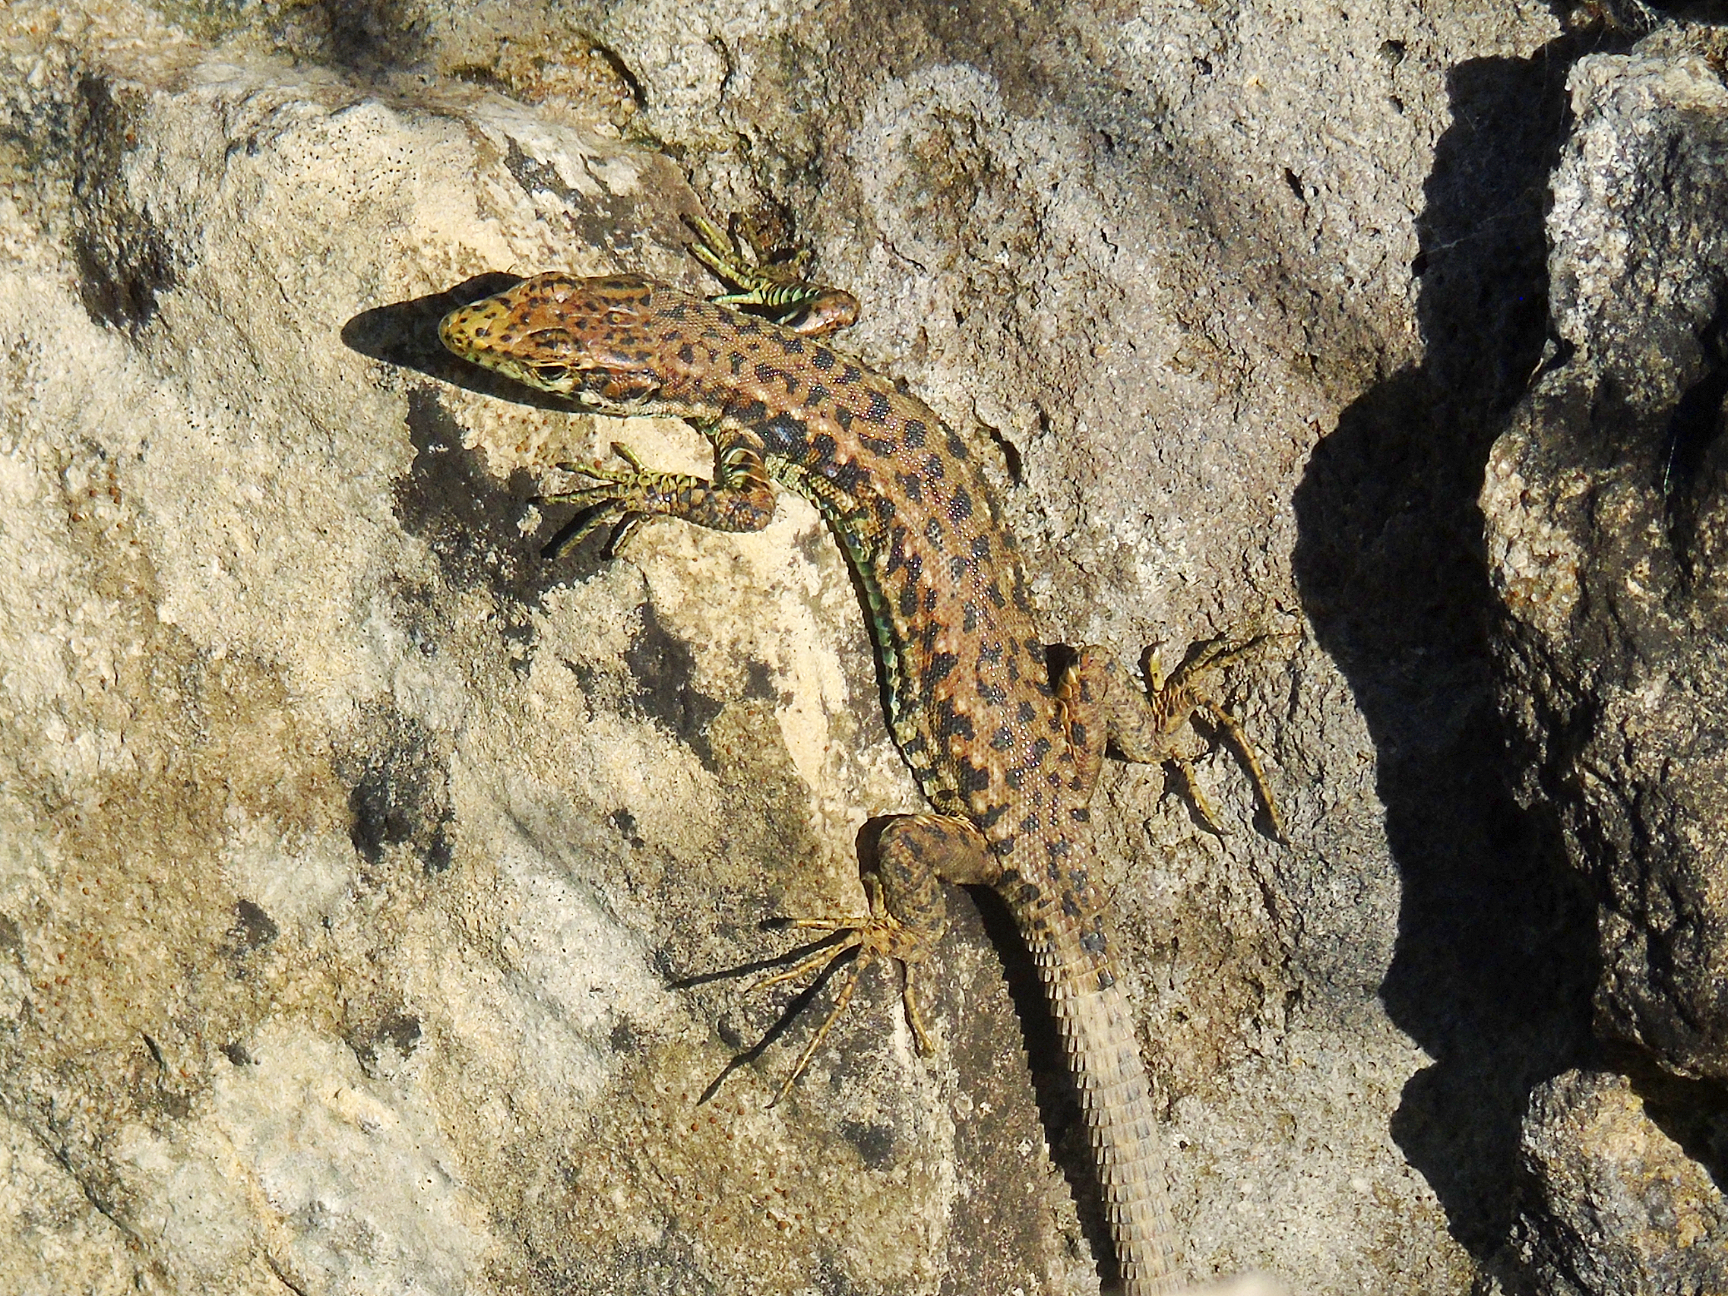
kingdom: Animalia
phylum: Chordata
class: Squamata
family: Lacertidae
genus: Darevskia
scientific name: Darevskia rudis
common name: Spiny-tailed lizard
